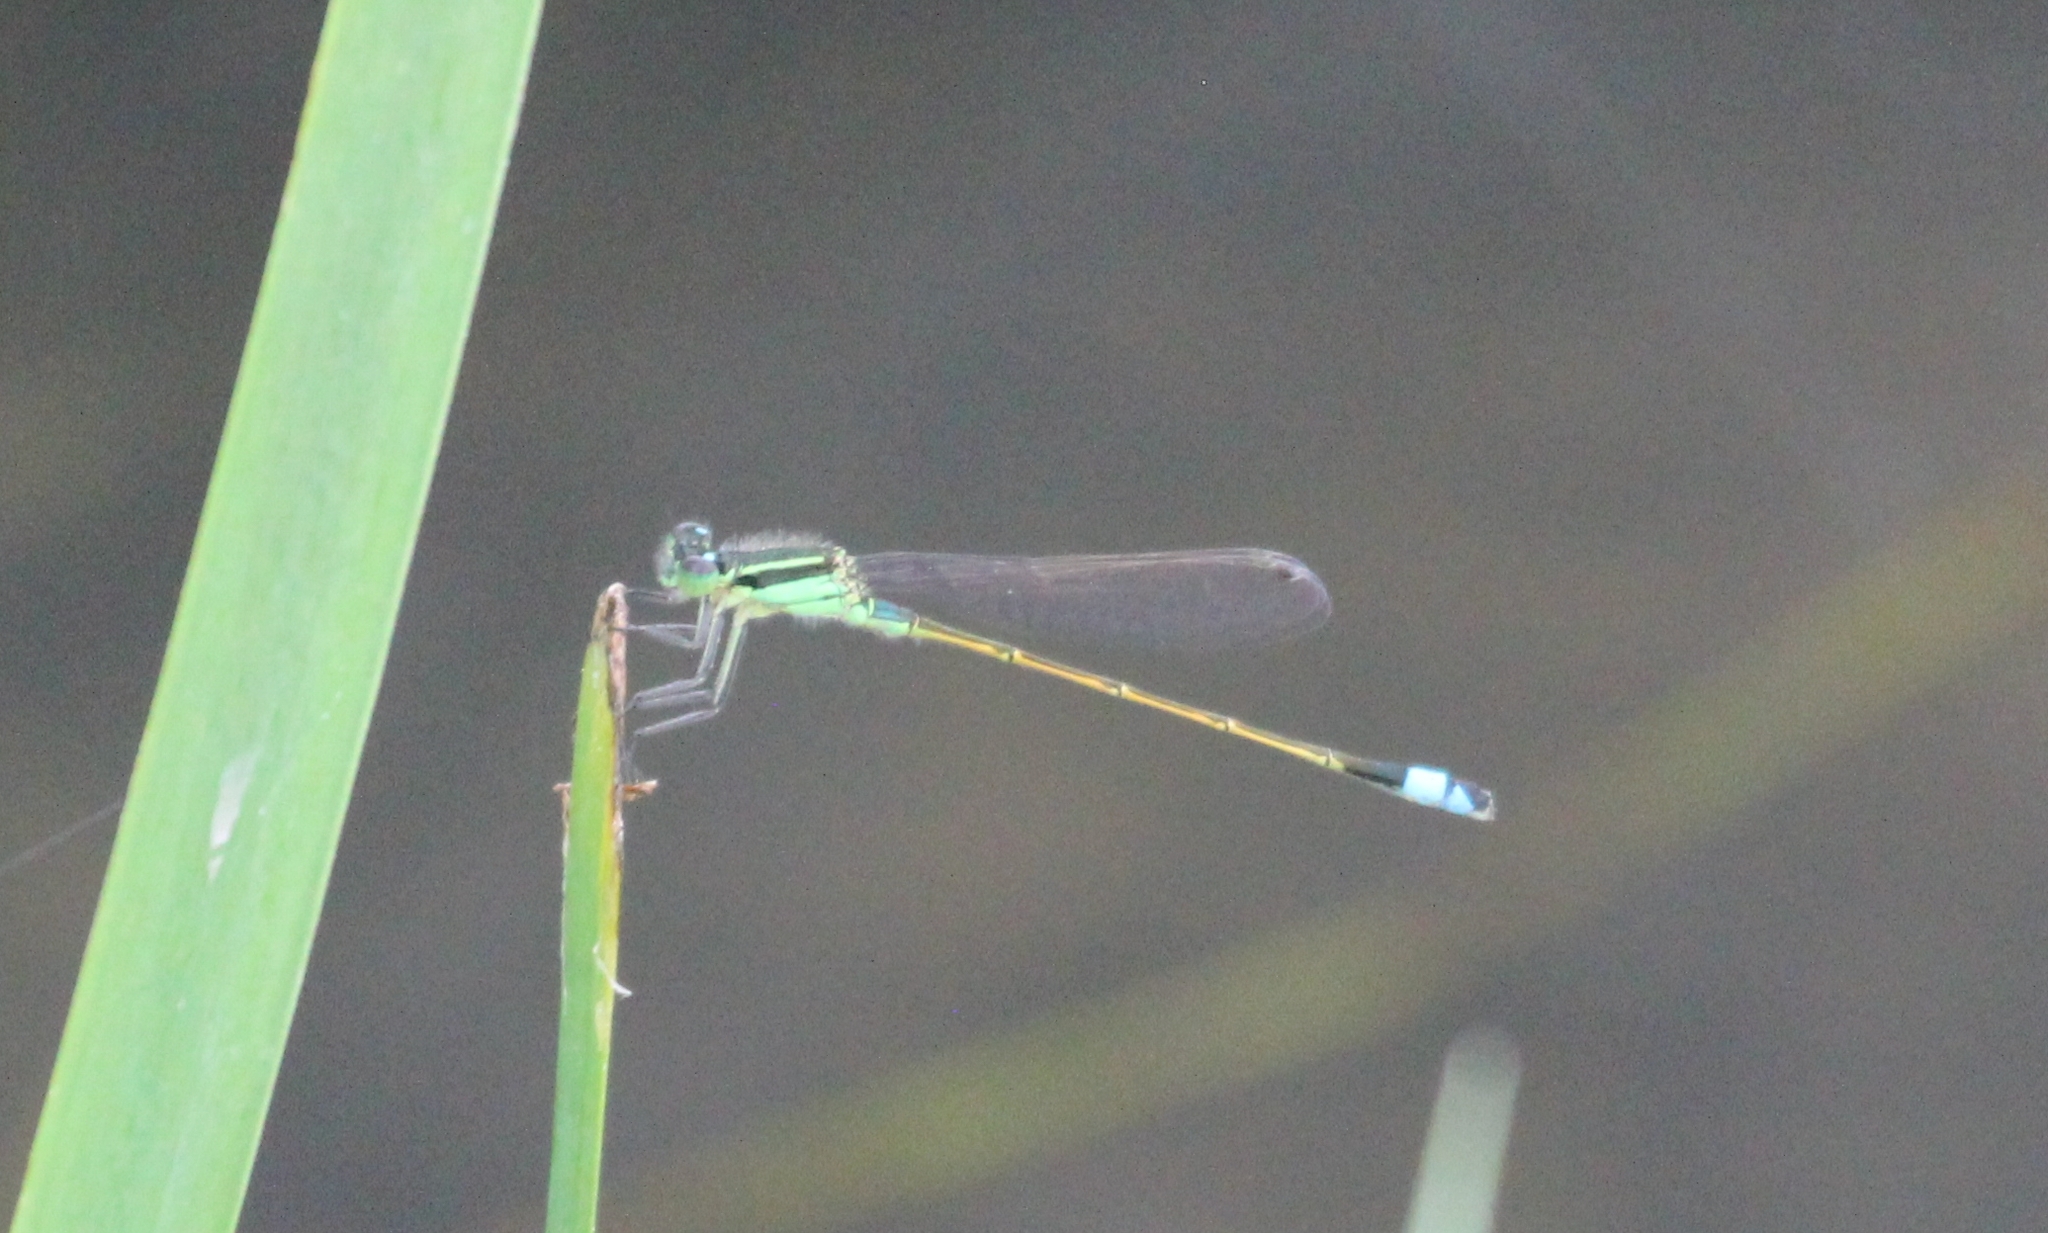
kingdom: Animalia
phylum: Arthropoda
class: Insecta
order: Odonata
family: Coenagrionidae
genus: Ischnura
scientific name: Ischnura ramburii
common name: Rambur's forktail
